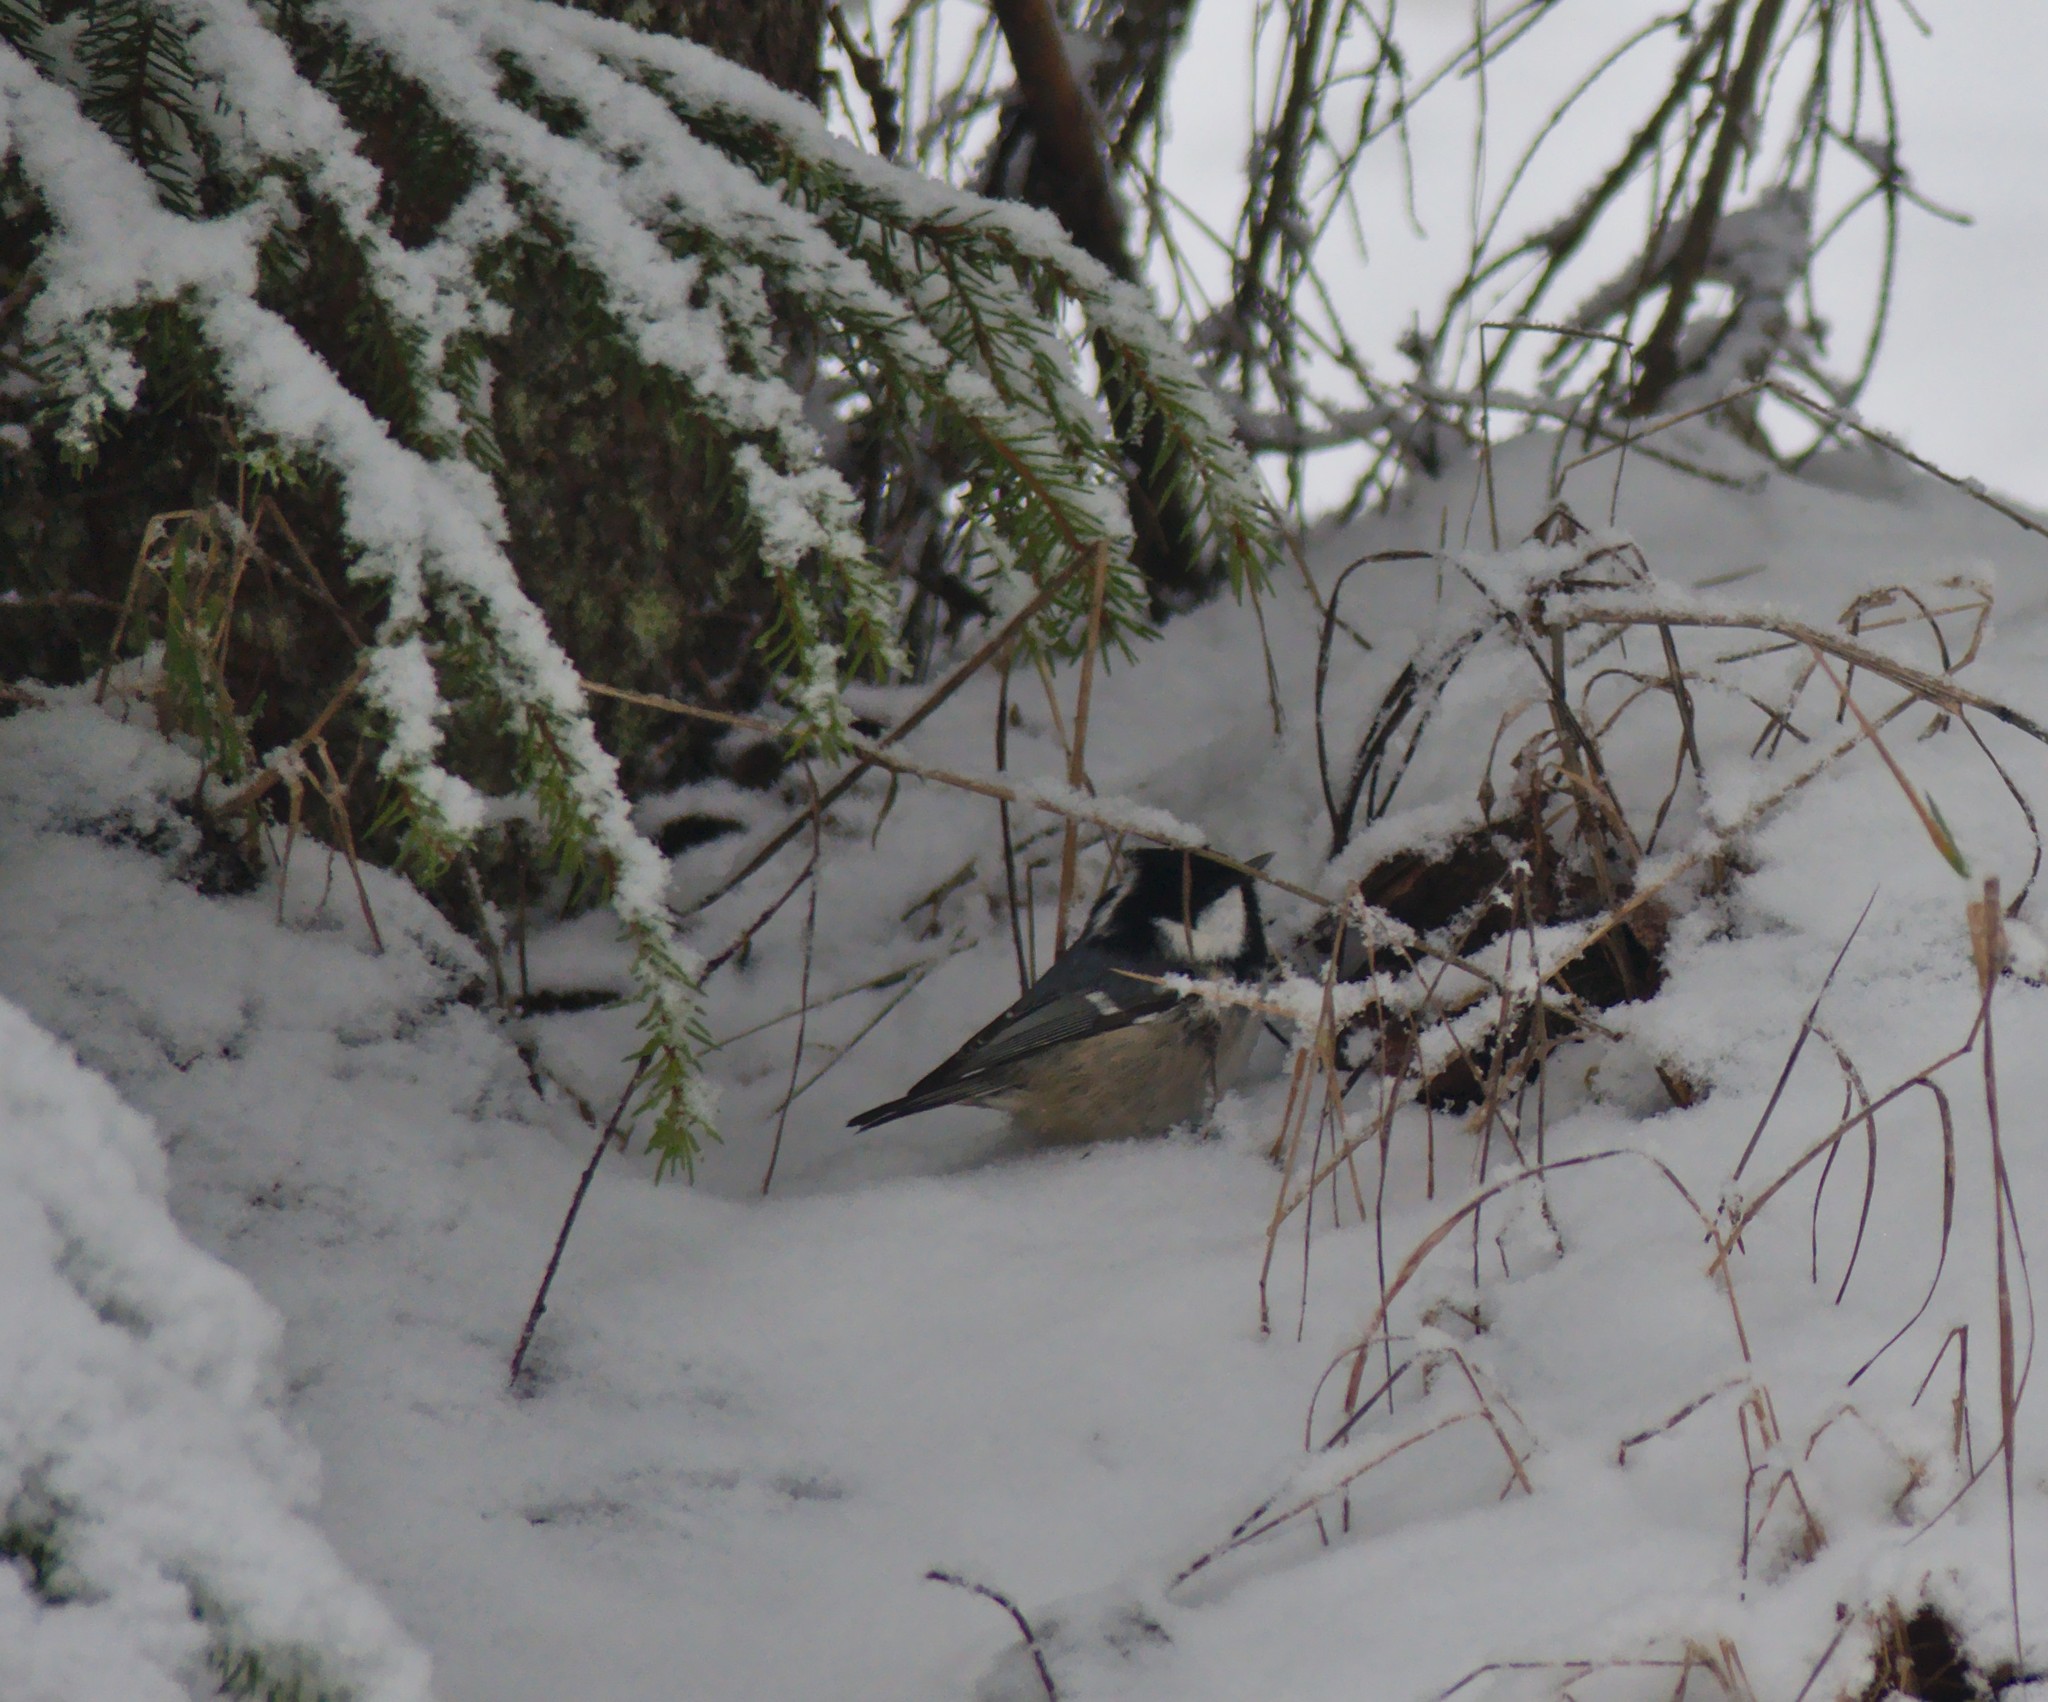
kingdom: Animalia
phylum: Chordata
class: Aves
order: Passeriformes
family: Paridae
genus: Periparus
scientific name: Periparus ater
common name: Coal tit
